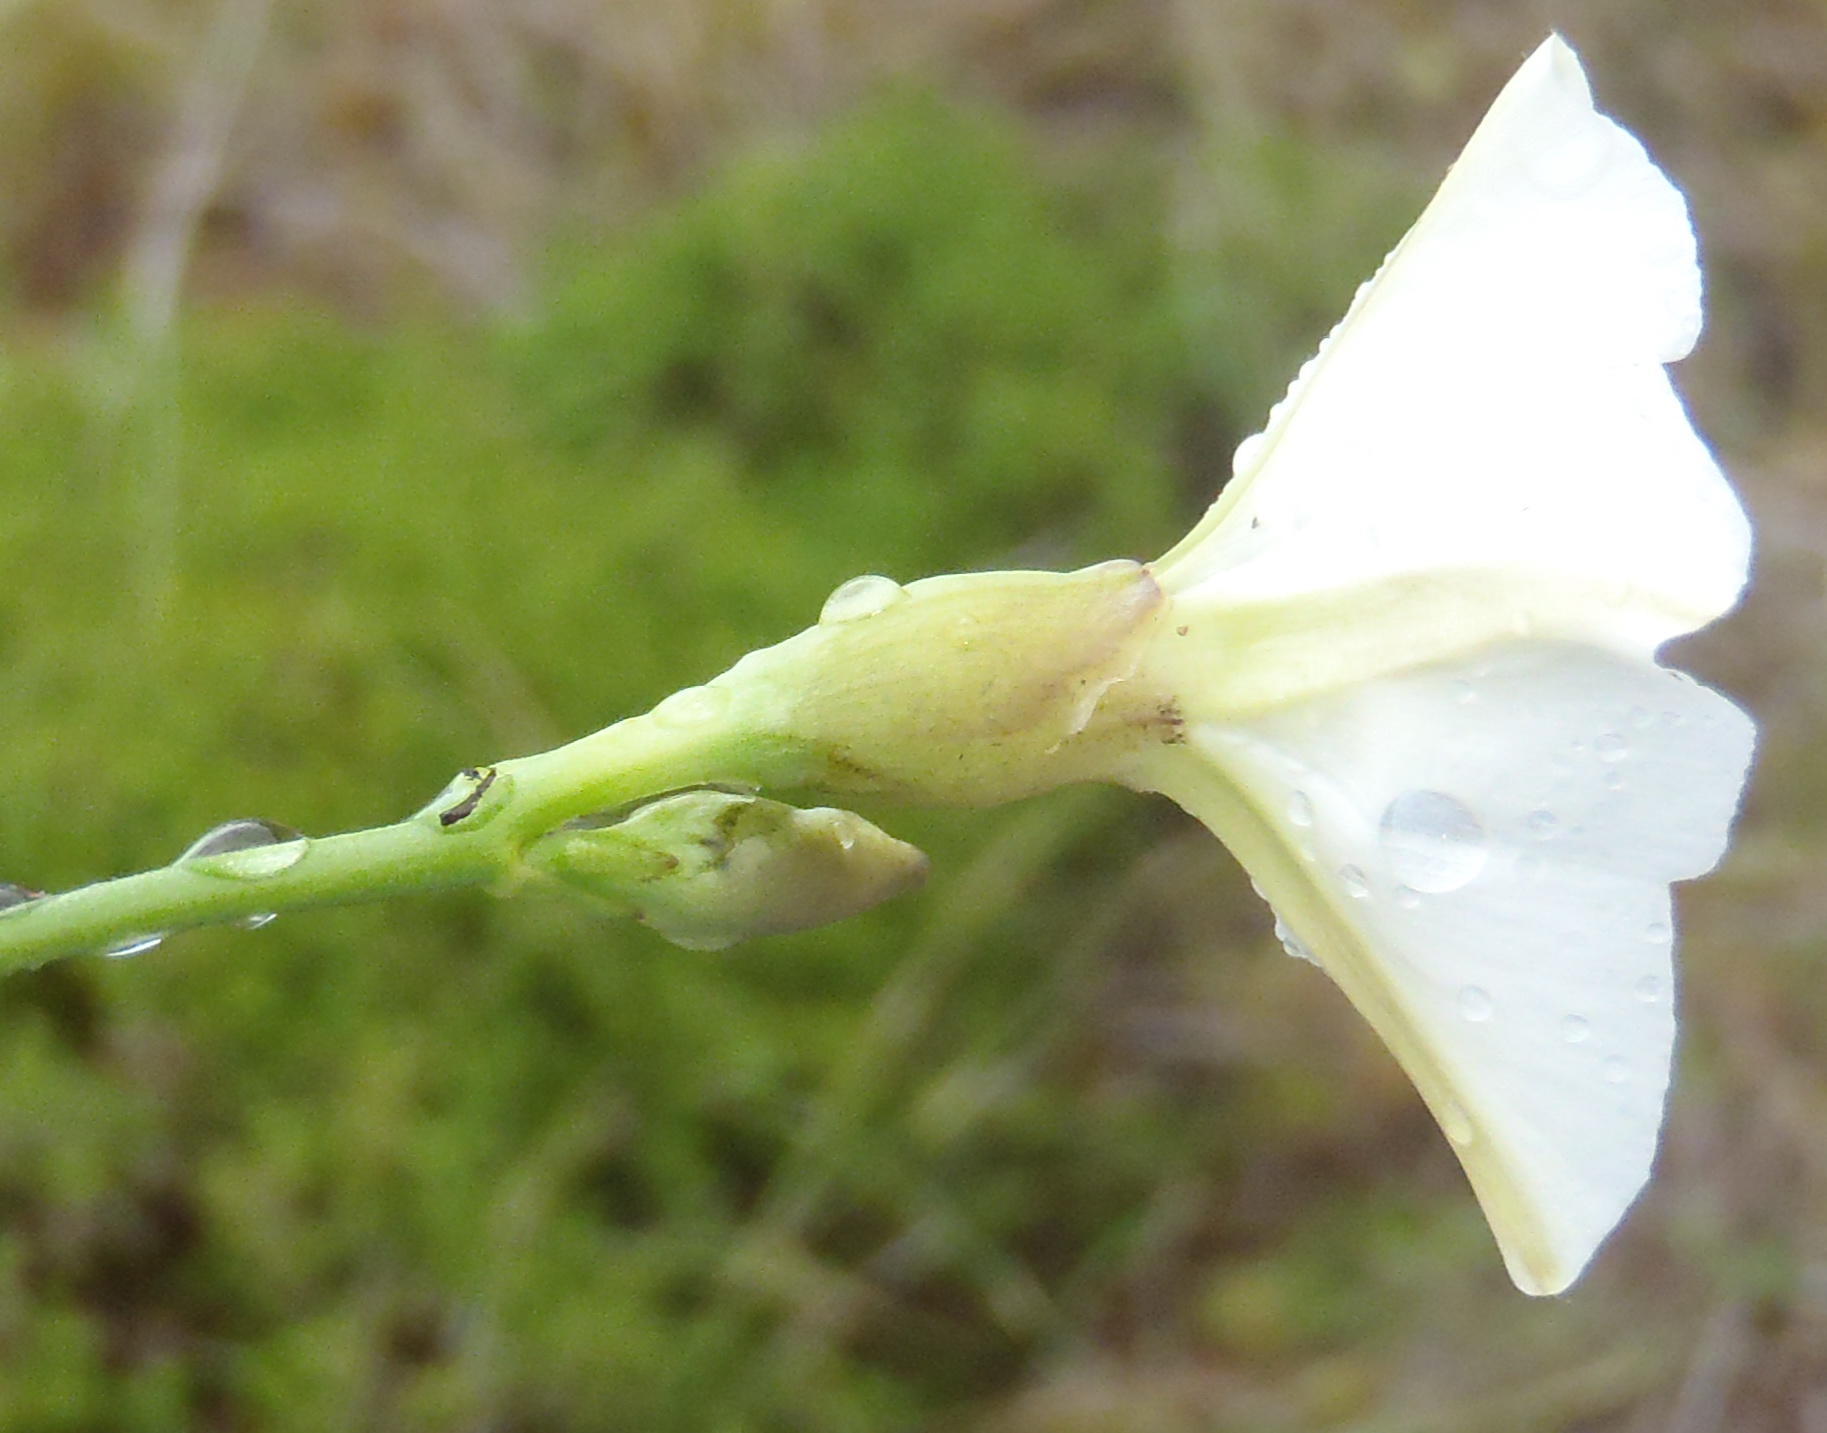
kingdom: Plantae
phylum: Tracheophyta
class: Magnoliopsida
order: Solanales
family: Convolvulaceae
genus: Convolvulus
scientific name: Convolvulus sagittatus
